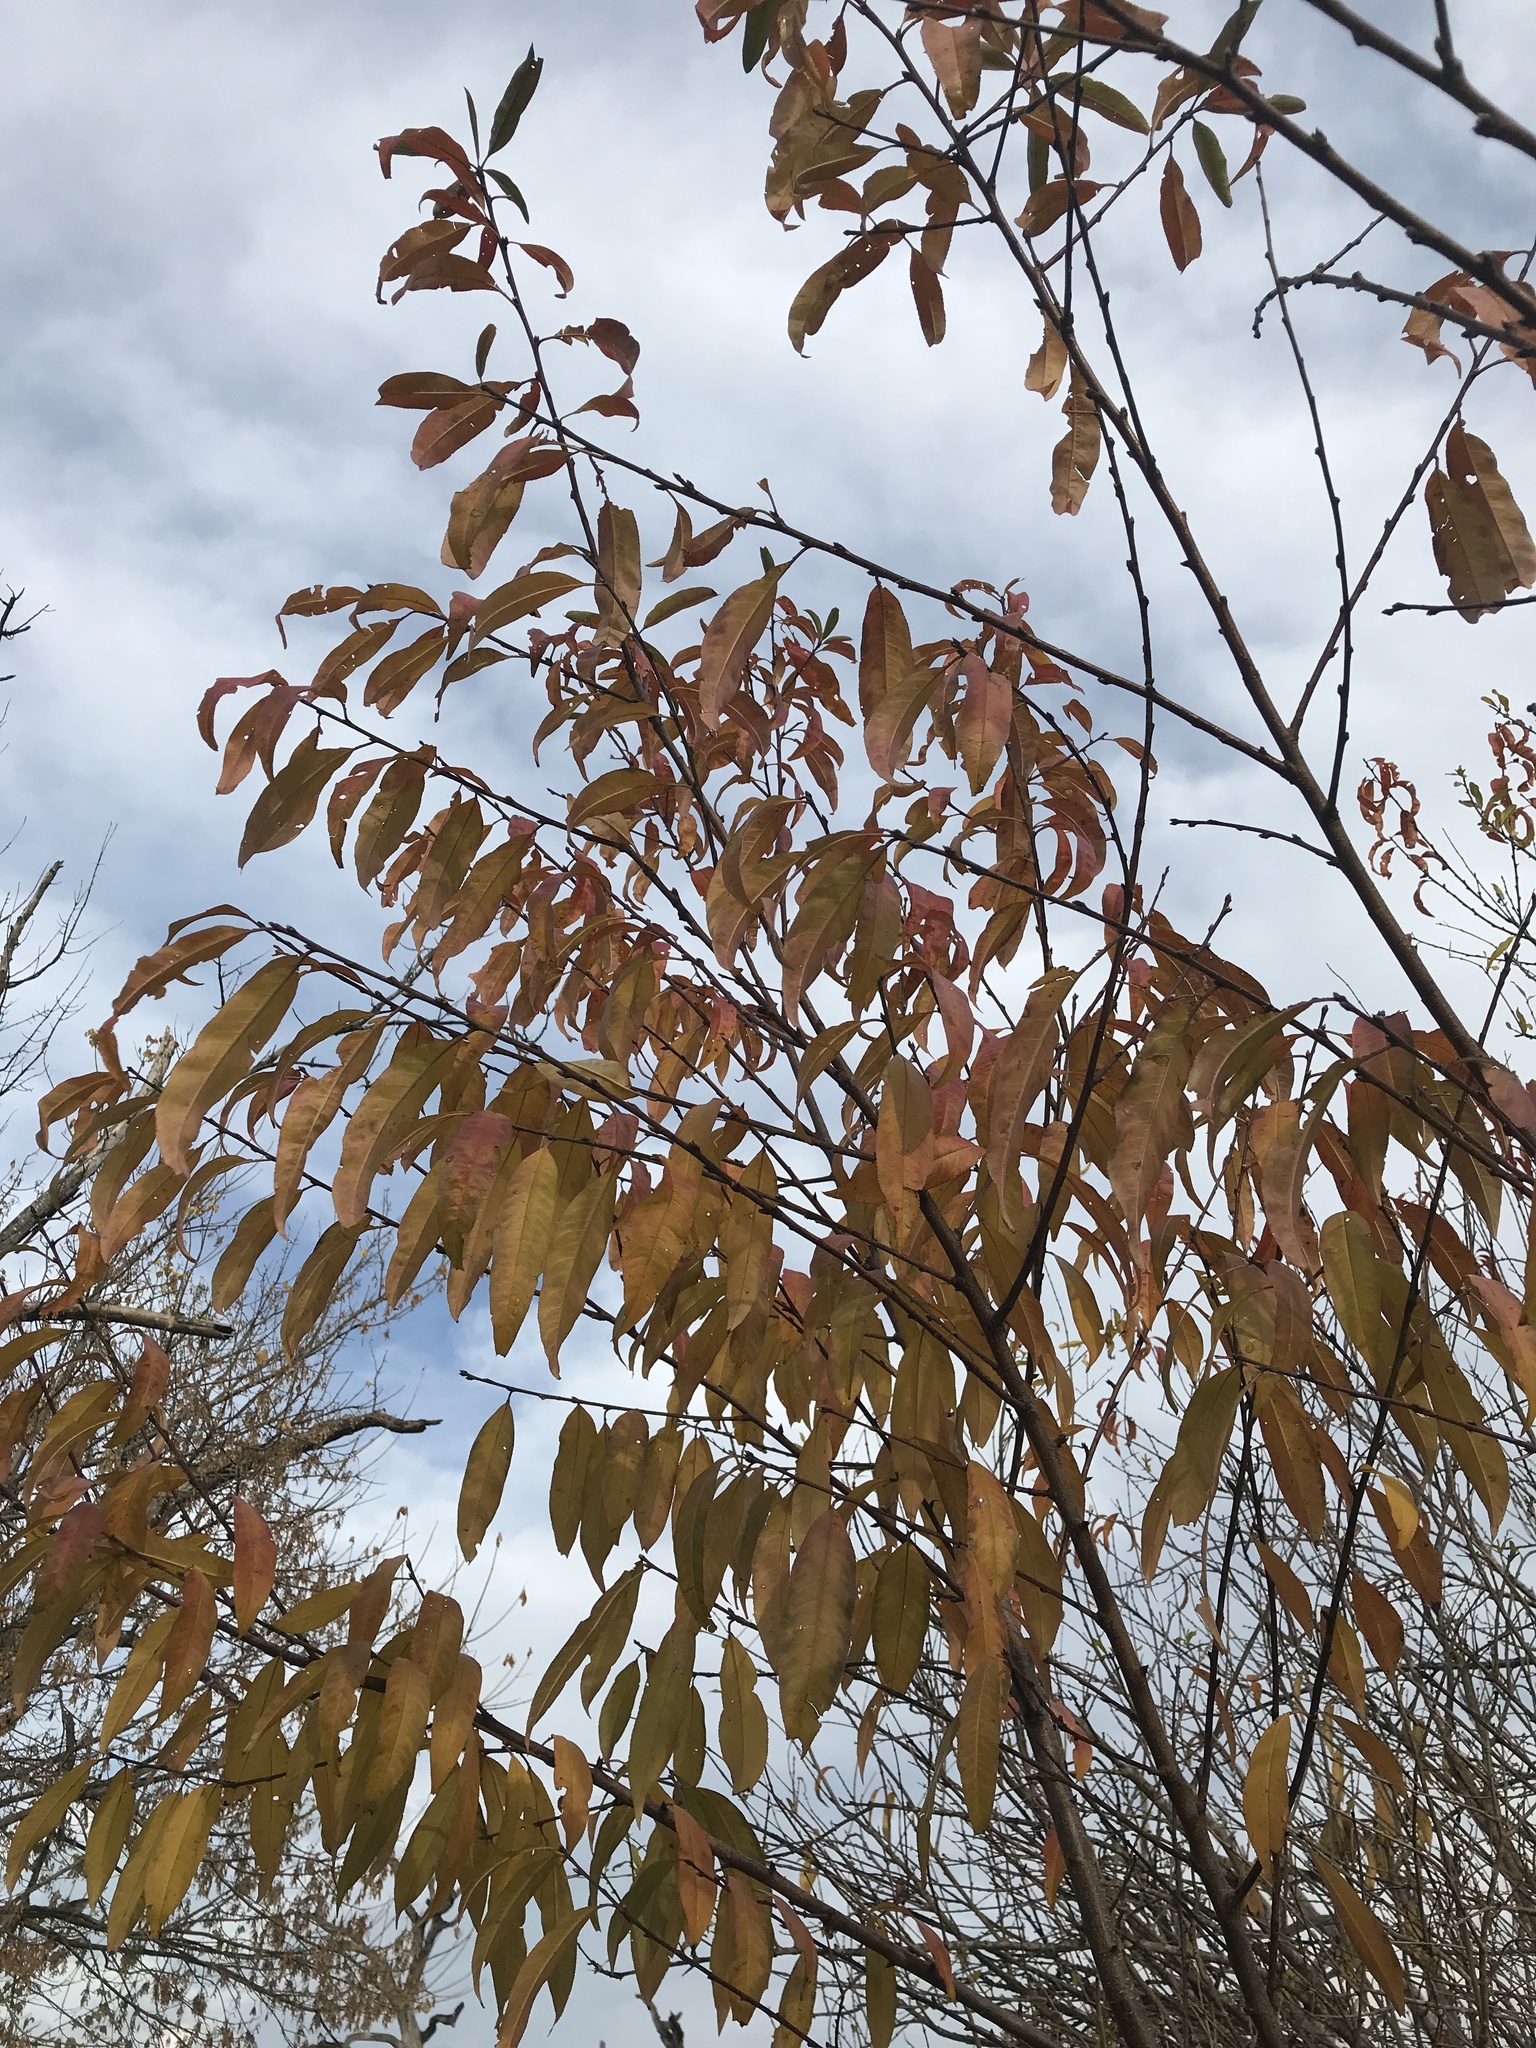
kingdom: Plantae
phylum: Tracheophyta
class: Magnoliopsida
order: Rosales
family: Rosaceae
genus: Prunus
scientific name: Prunus persica
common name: Peach
